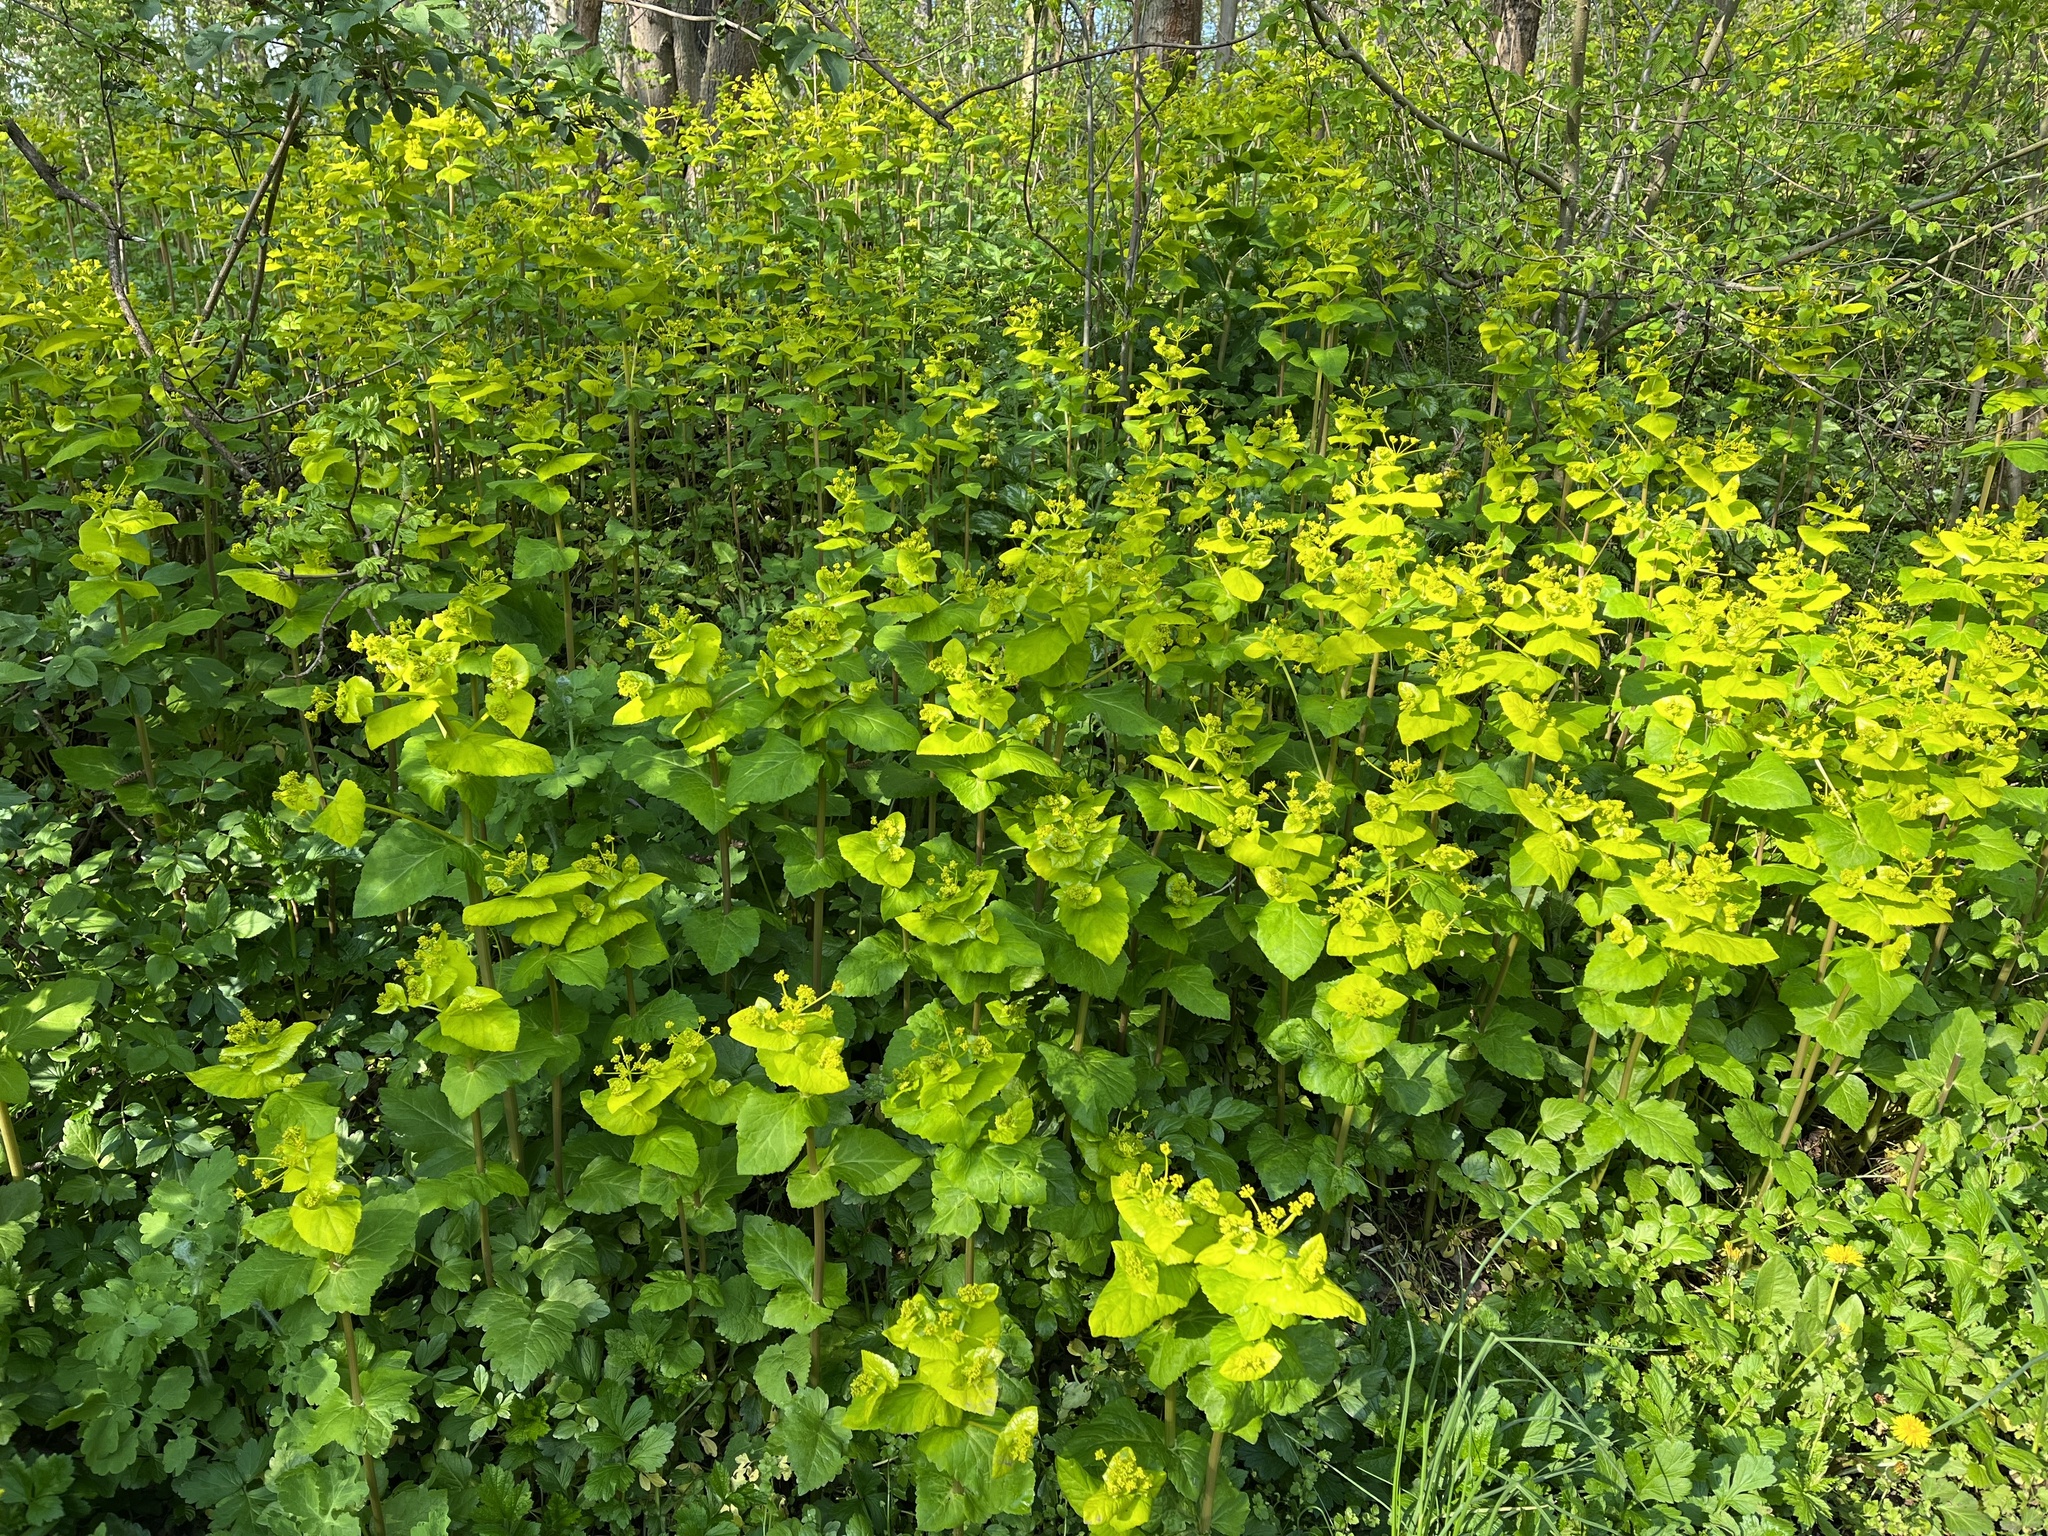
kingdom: Plantae
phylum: Tracheophyta
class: Magnoliopsida
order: Apiales
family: Apiaceae
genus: Smyrnium
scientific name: Smyrnium perfoliatum
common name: Perfoliate alexanders
